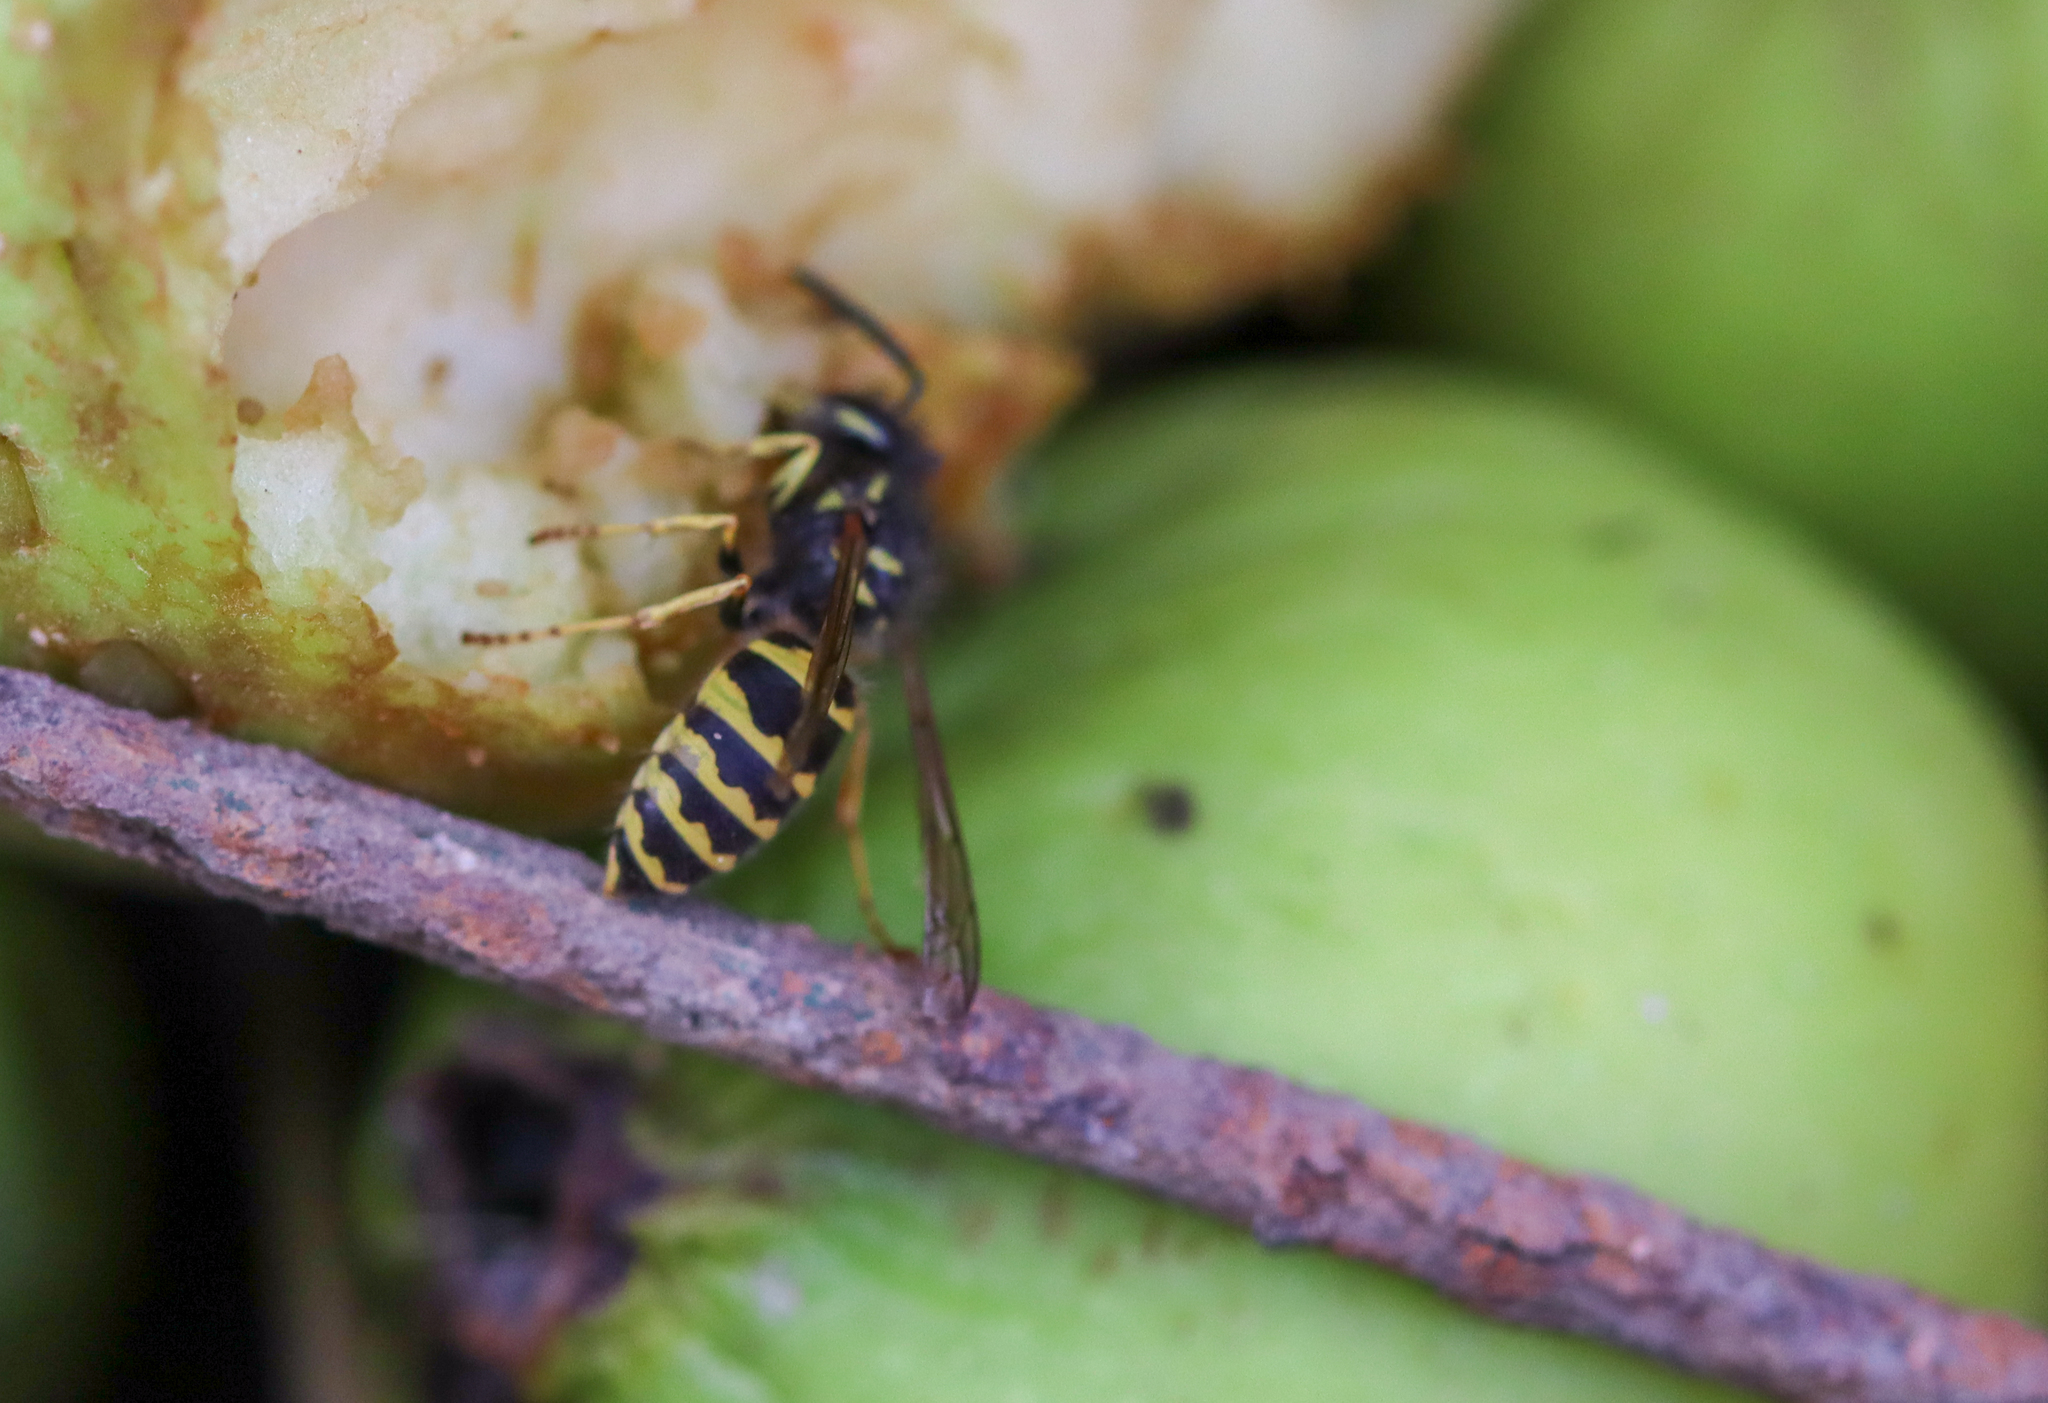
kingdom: Animalia
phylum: Arthropoda
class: Insecta
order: Hymenoptera
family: Vespidae
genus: Vespula
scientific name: Vespula alascensis
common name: Alaska yellowjacket
